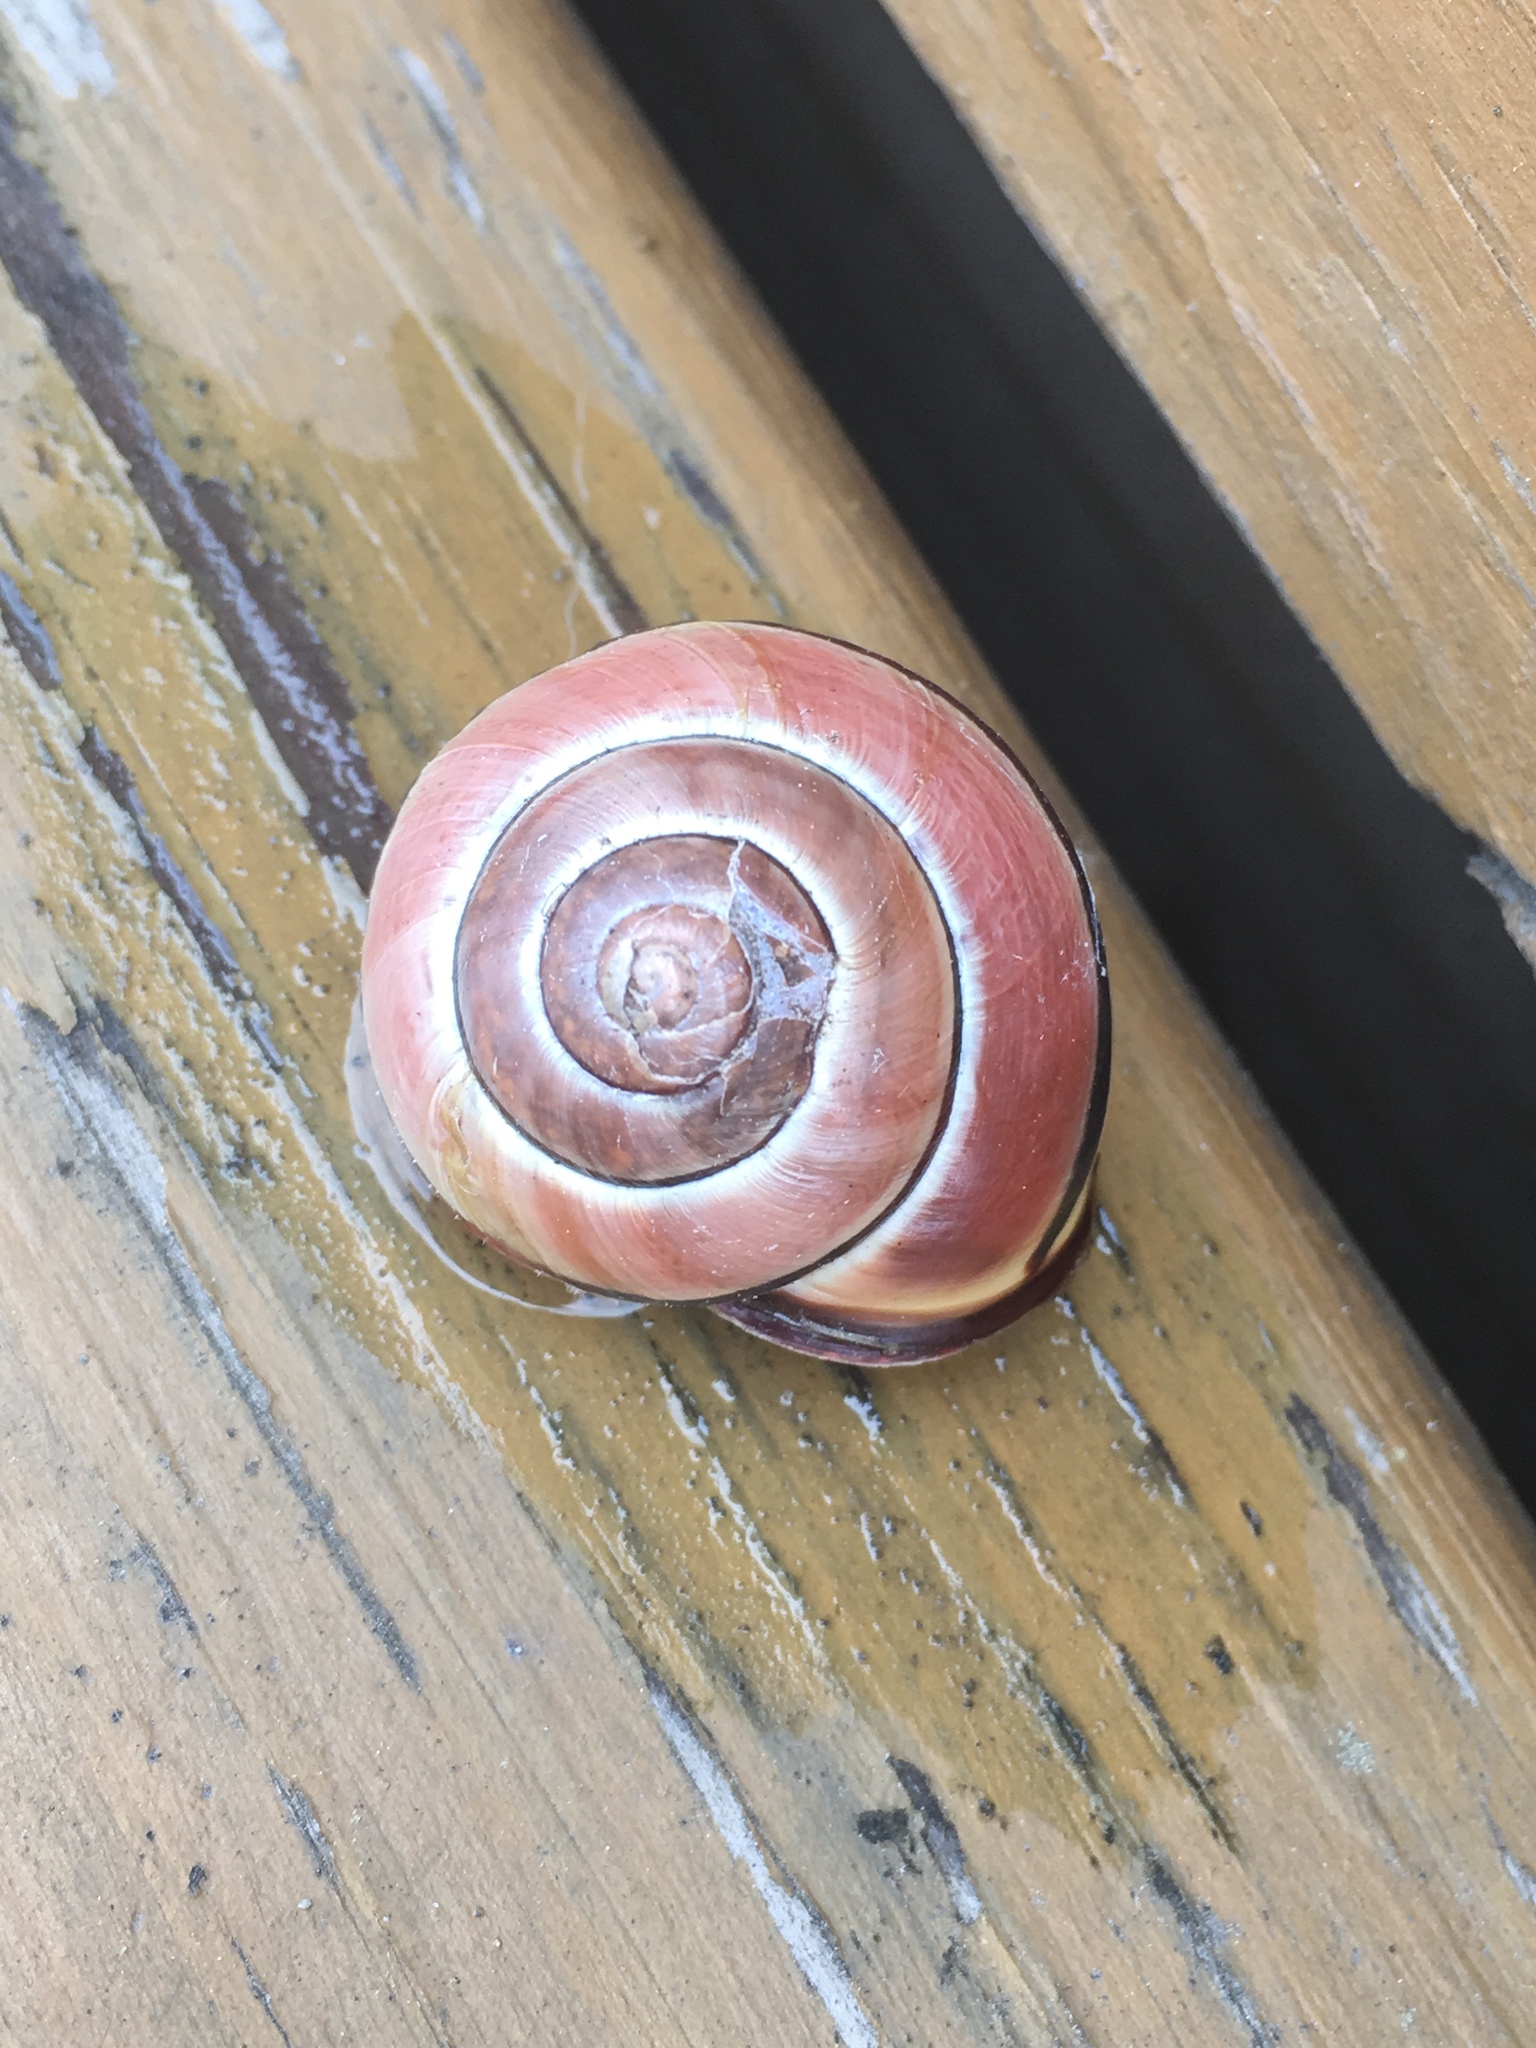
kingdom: Animalia
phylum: Mollusca
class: Gastropoda
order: Stylommatophora
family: Helicidae
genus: Cepaea
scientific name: Cepaea nemoralis
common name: Grovesnail
